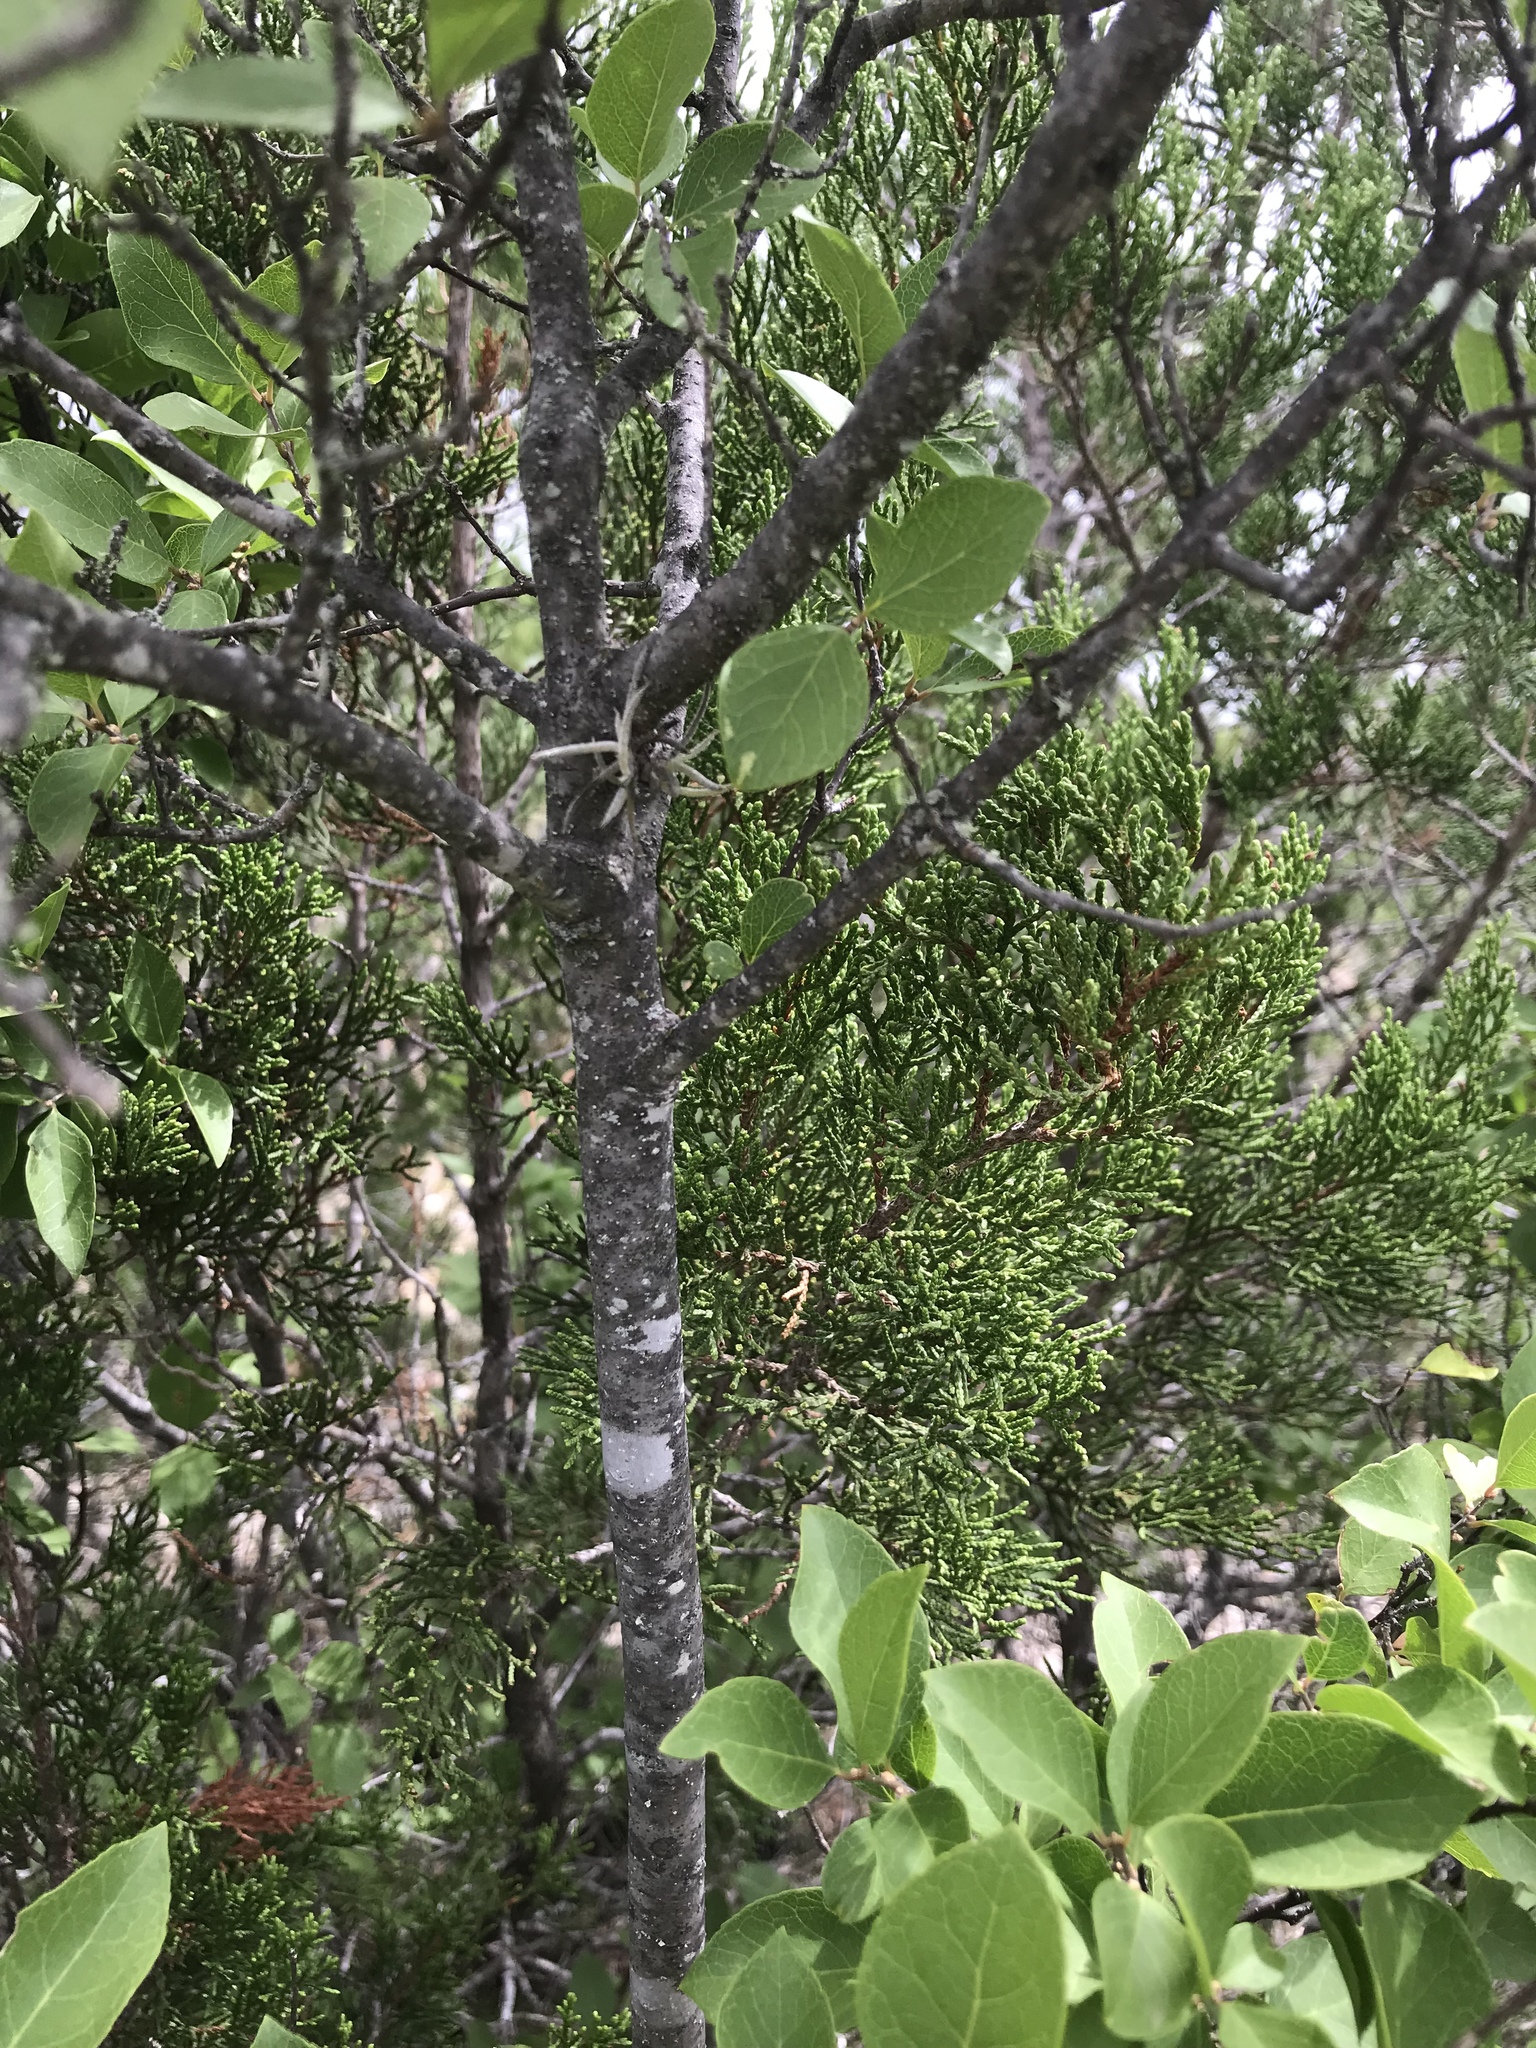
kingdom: Plantae
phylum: Tracheophyta
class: Magnoliopsida
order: Lamiales
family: Oleaceae
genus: Forestiera
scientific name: Forestiera reticulata
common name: Netleaf swamp-privet
